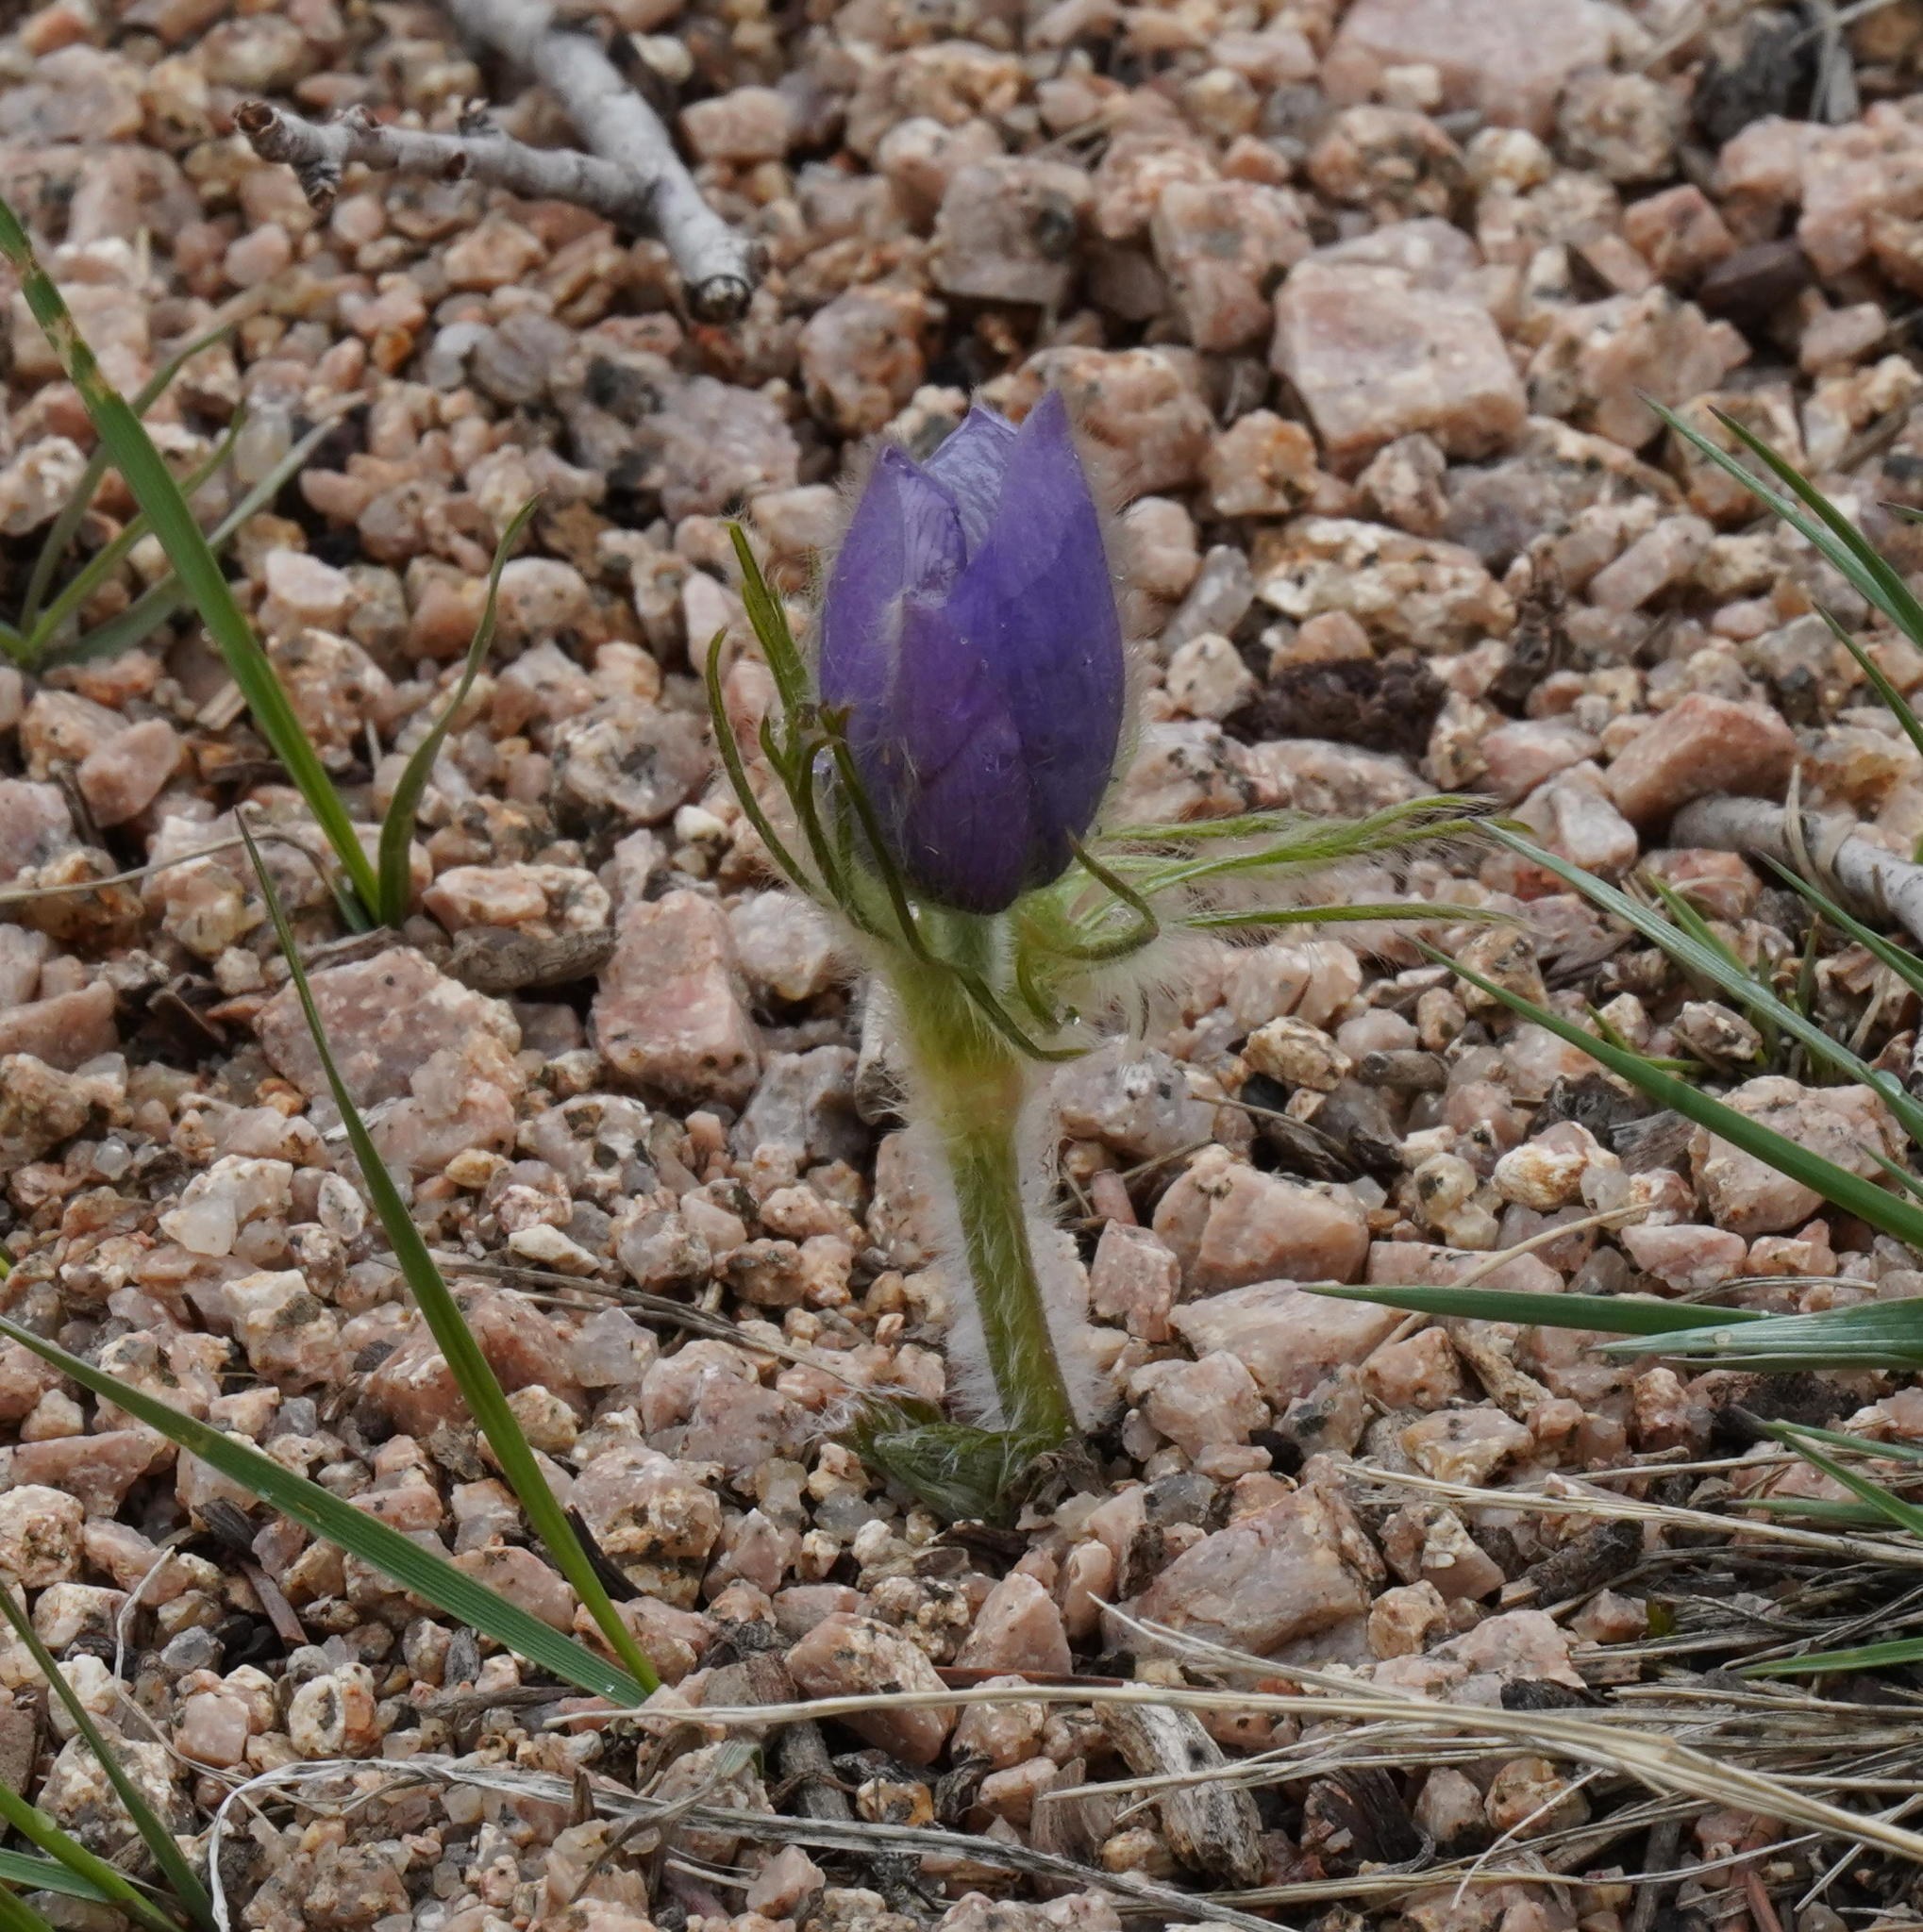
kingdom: Plantae
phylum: Tracheophyta
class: Magnoliopsida
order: Ranunculales
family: Ranunculaceae
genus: Pulsatilla
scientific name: Pulsatilla nuttalliana
